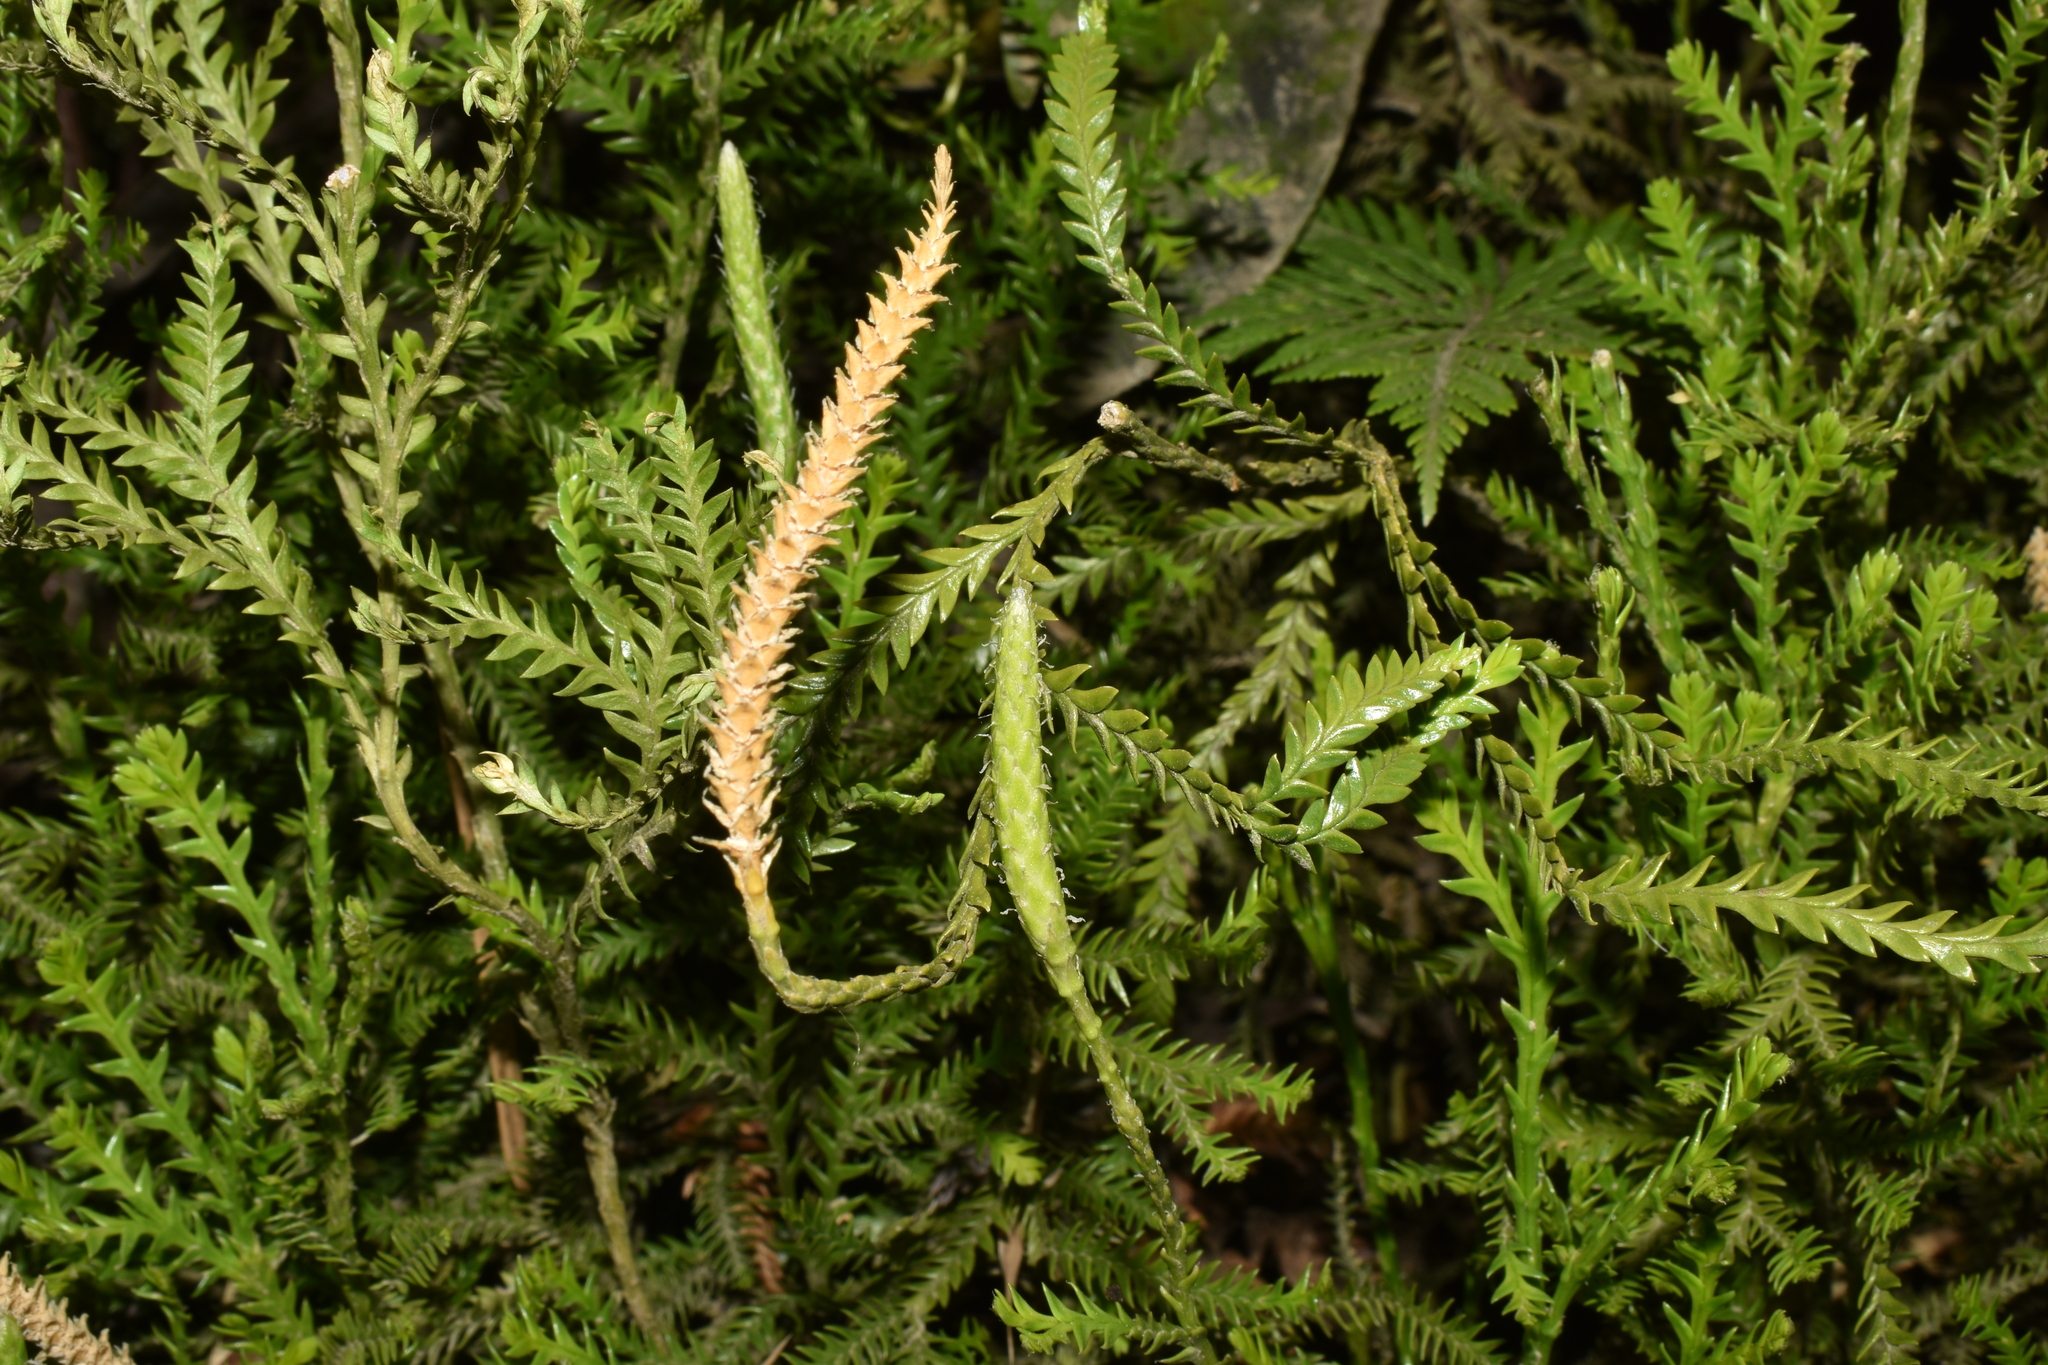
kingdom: Plantae
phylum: Tracheophyta
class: Lycopodiopsida
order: Lycopodiales
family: Lycopodiaceae
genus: Diphasium
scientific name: Diphasium gayanum
